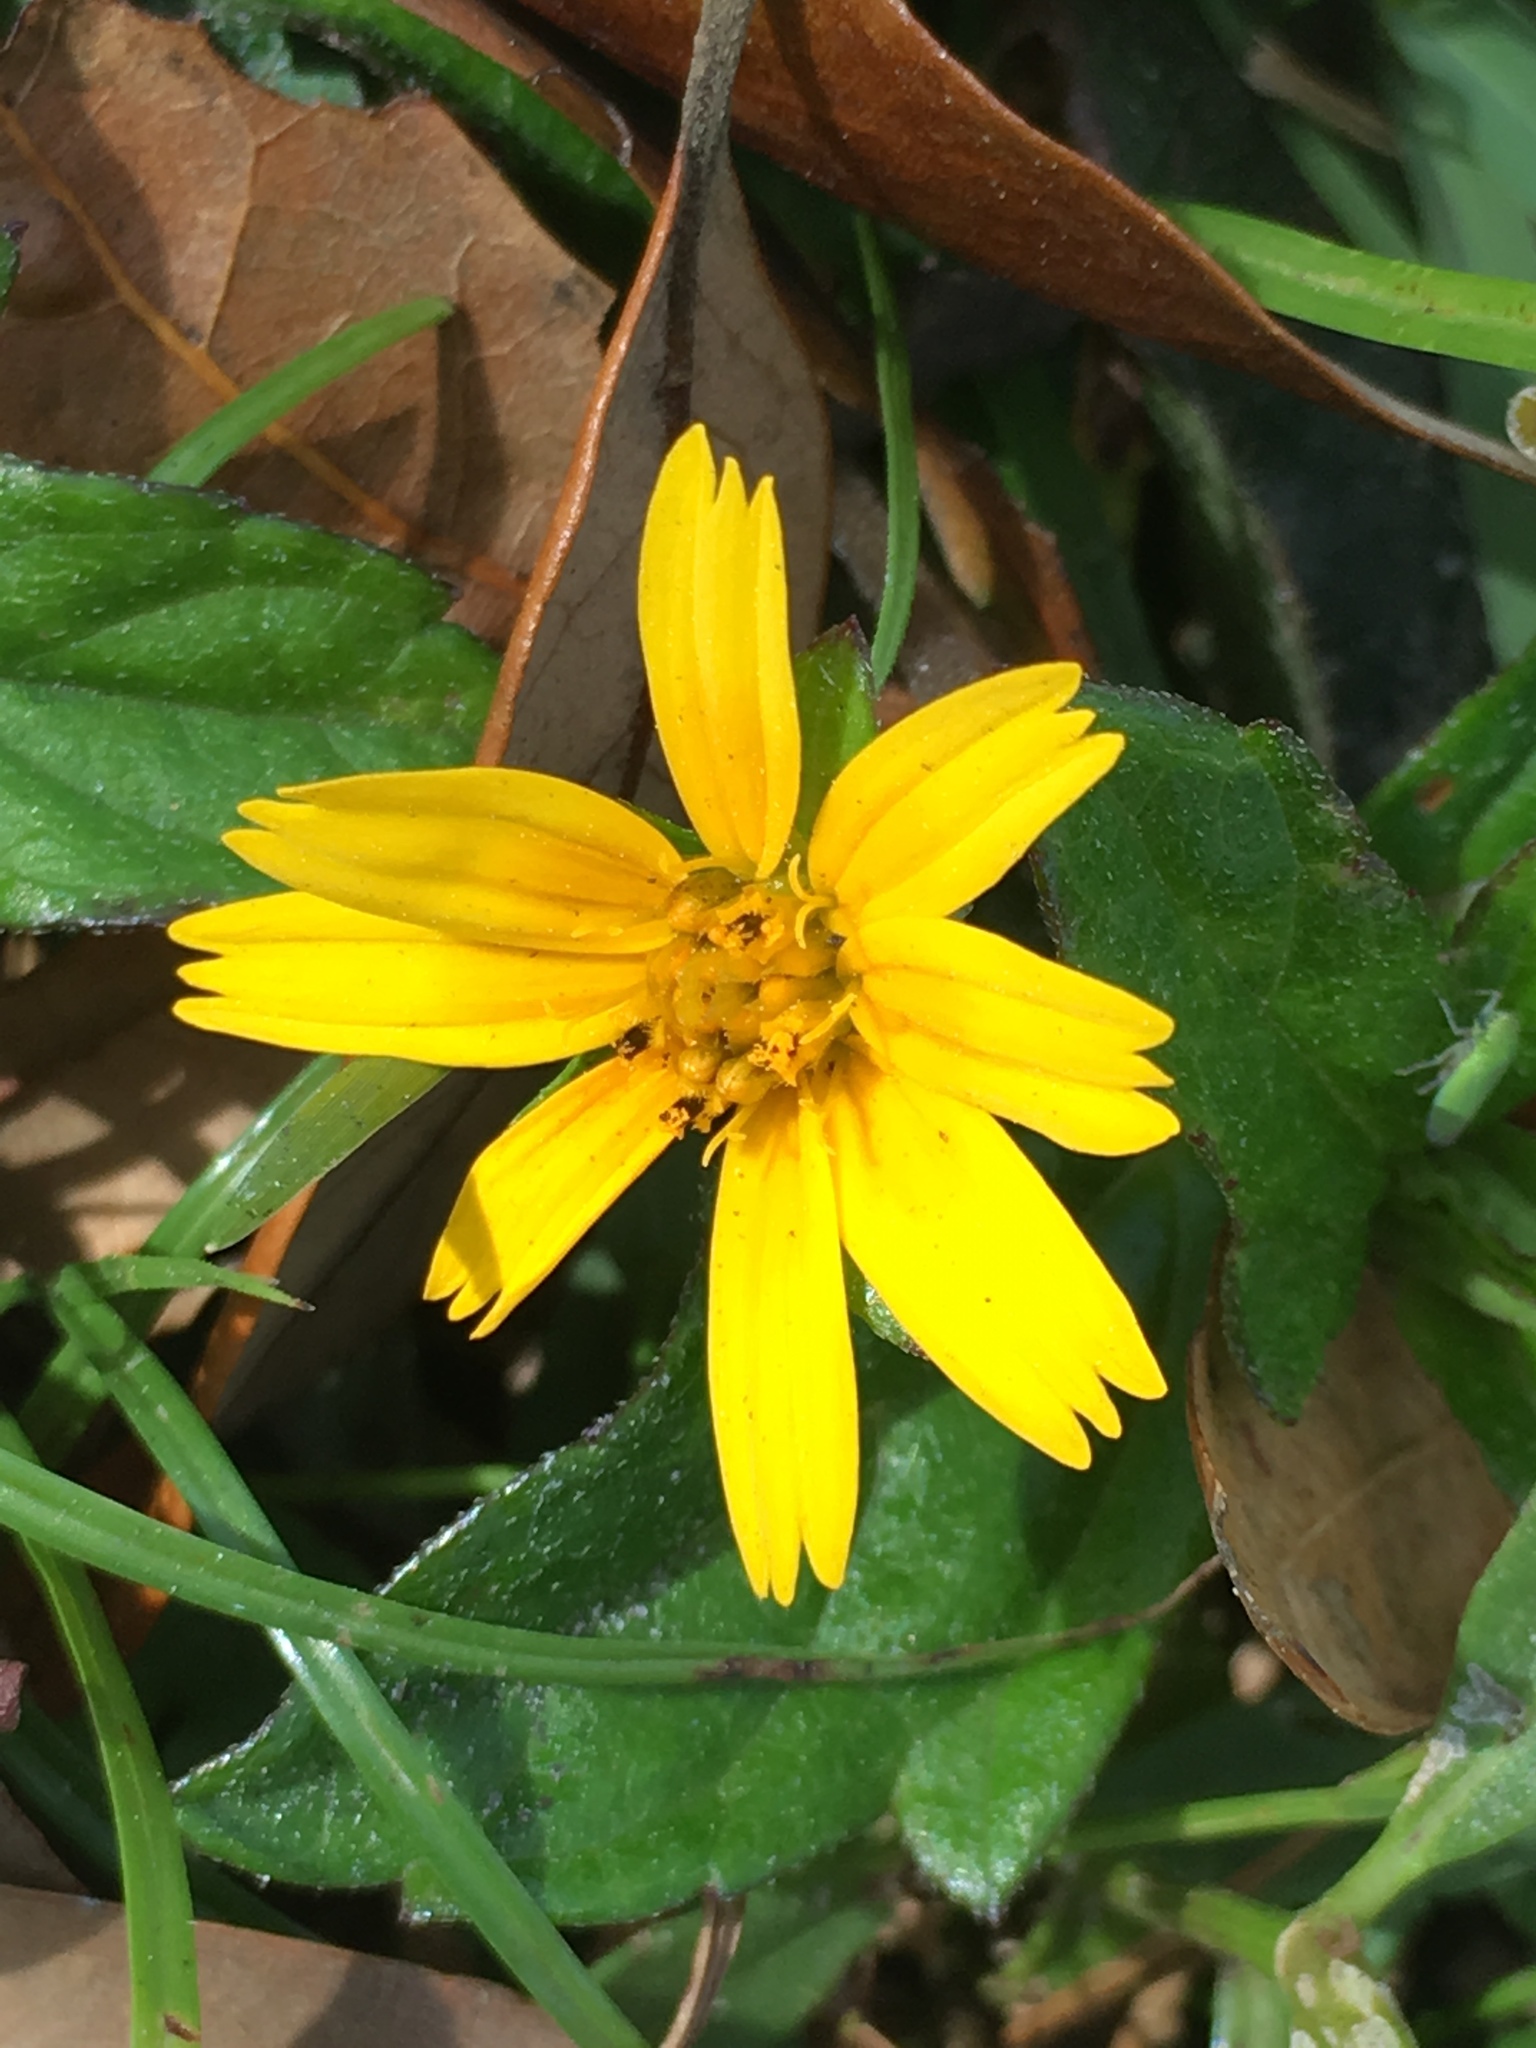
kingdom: Plantae
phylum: Tracheophyta
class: Magnoliopsida
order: Asterales
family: Asteraceae
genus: Sphagneticola
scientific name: Sphagneticola trilobata
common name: Bay biscayne creeping-oxeye
